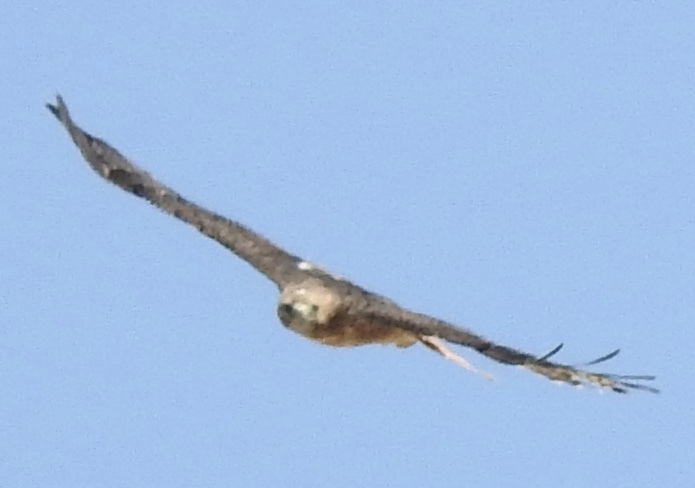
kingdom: Animalia
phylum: Chordata
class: Aves
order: Accipitriformes
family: Accipitridae
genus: Buteo
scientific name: Buteo jamaicensis
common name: Red-tailed hawk
